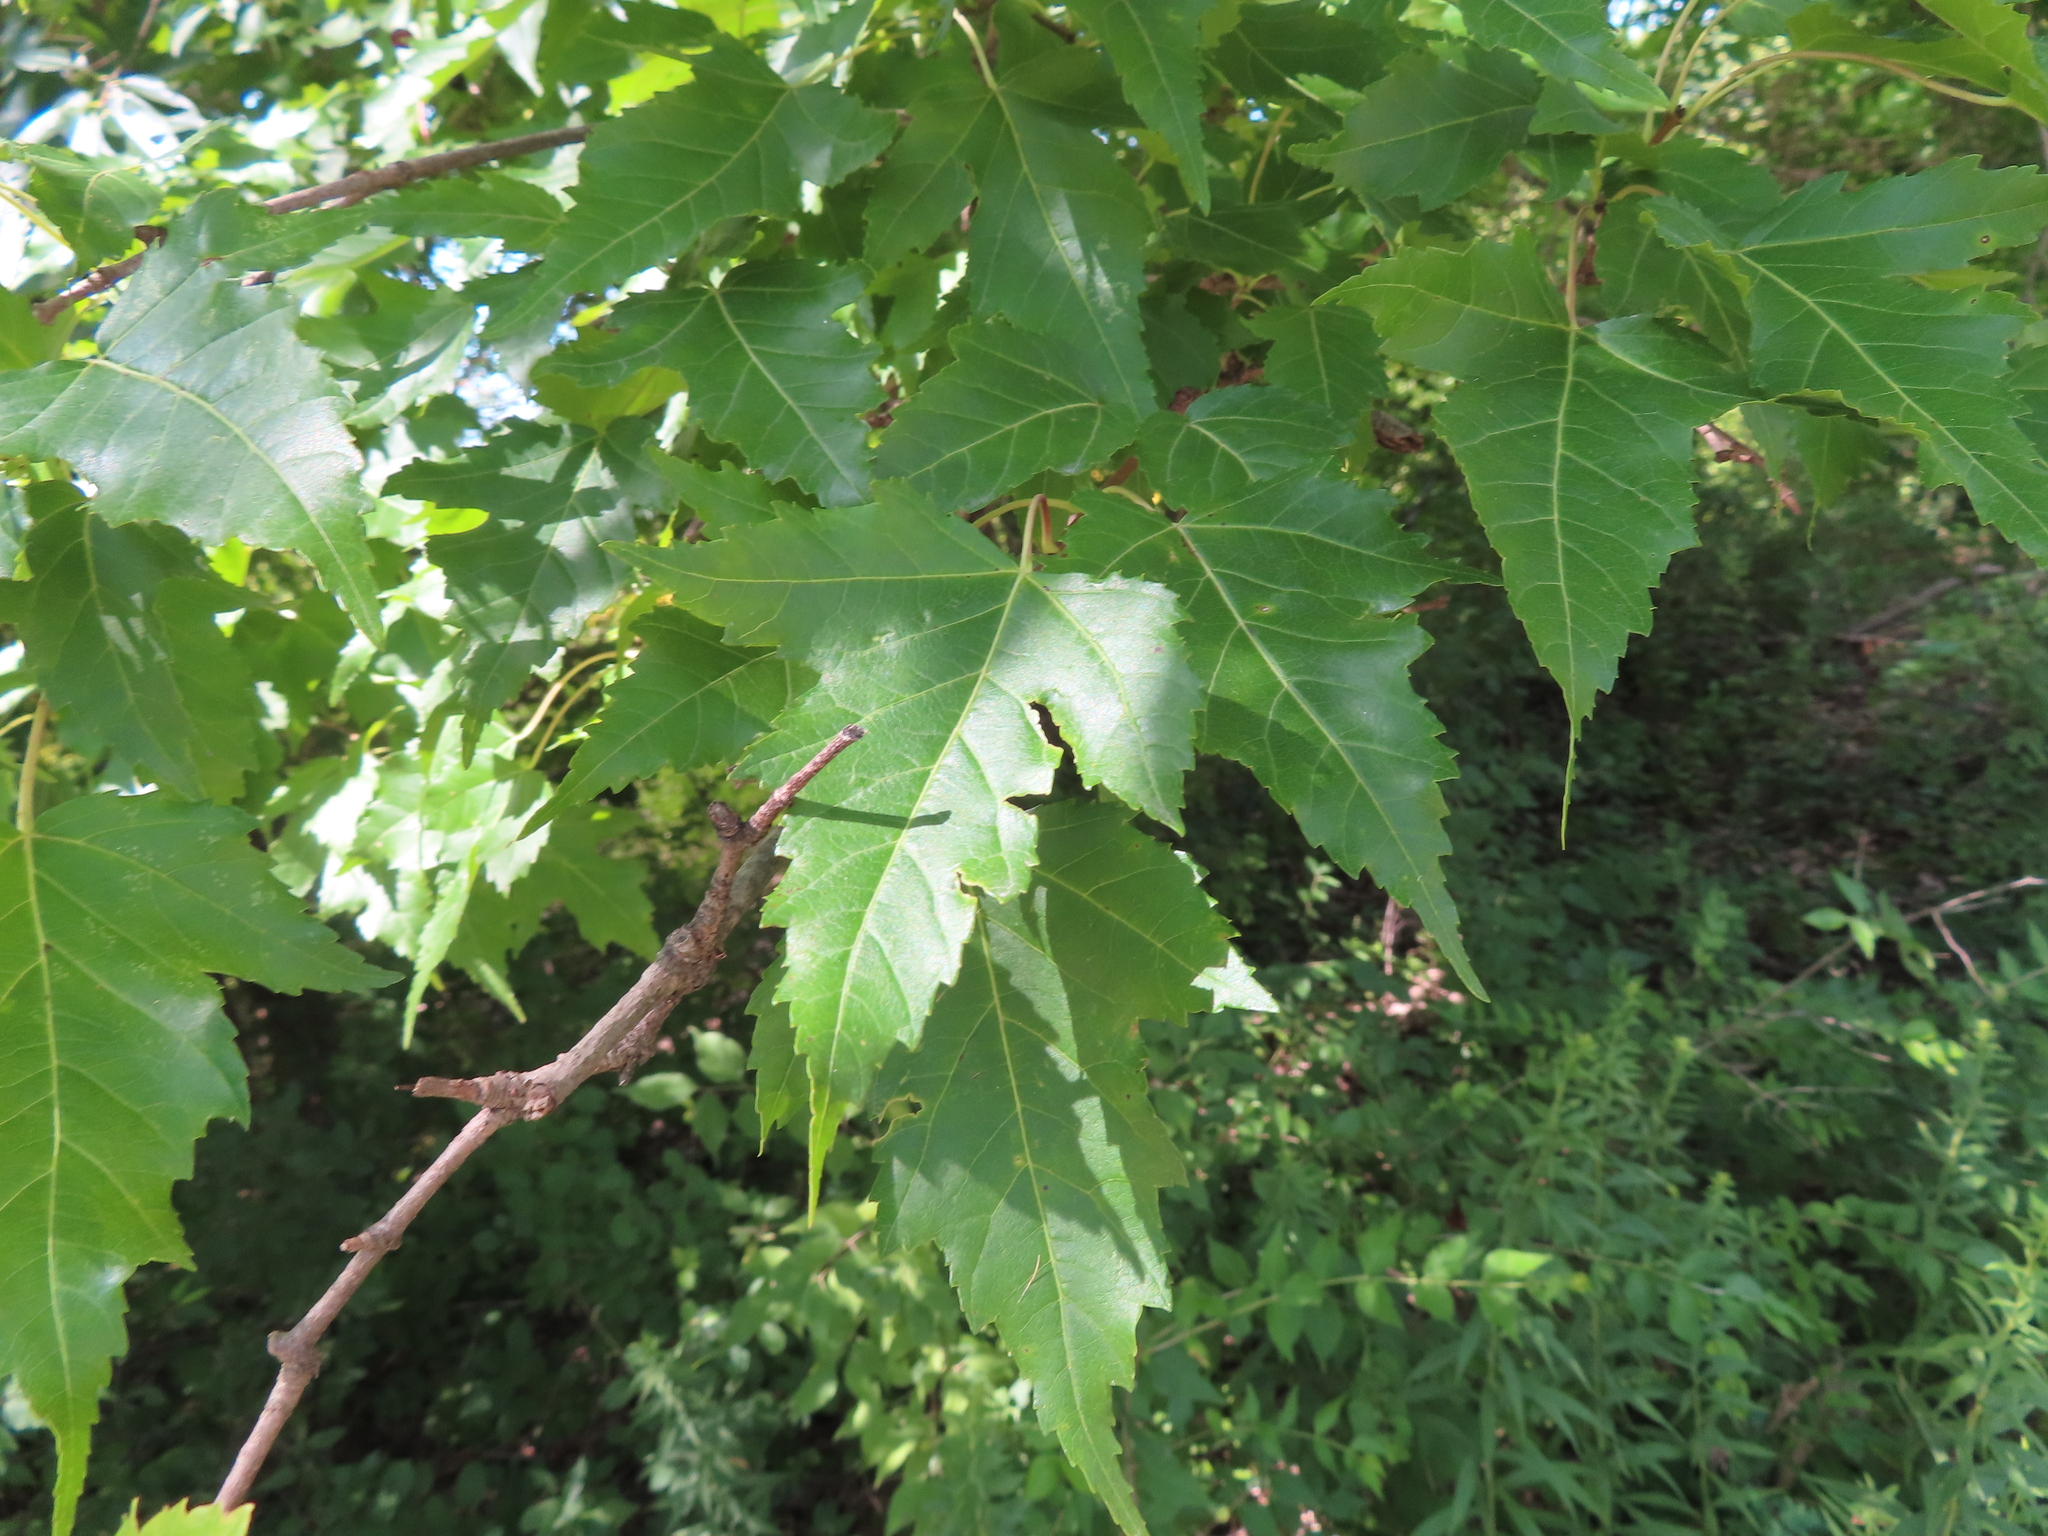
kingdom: Plantae
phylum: Tracheophyta
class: Magnoliopsida
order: Sapindales
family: Sapindaceae
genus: Acer
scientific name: Acer tataricum
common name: Tartar maple
